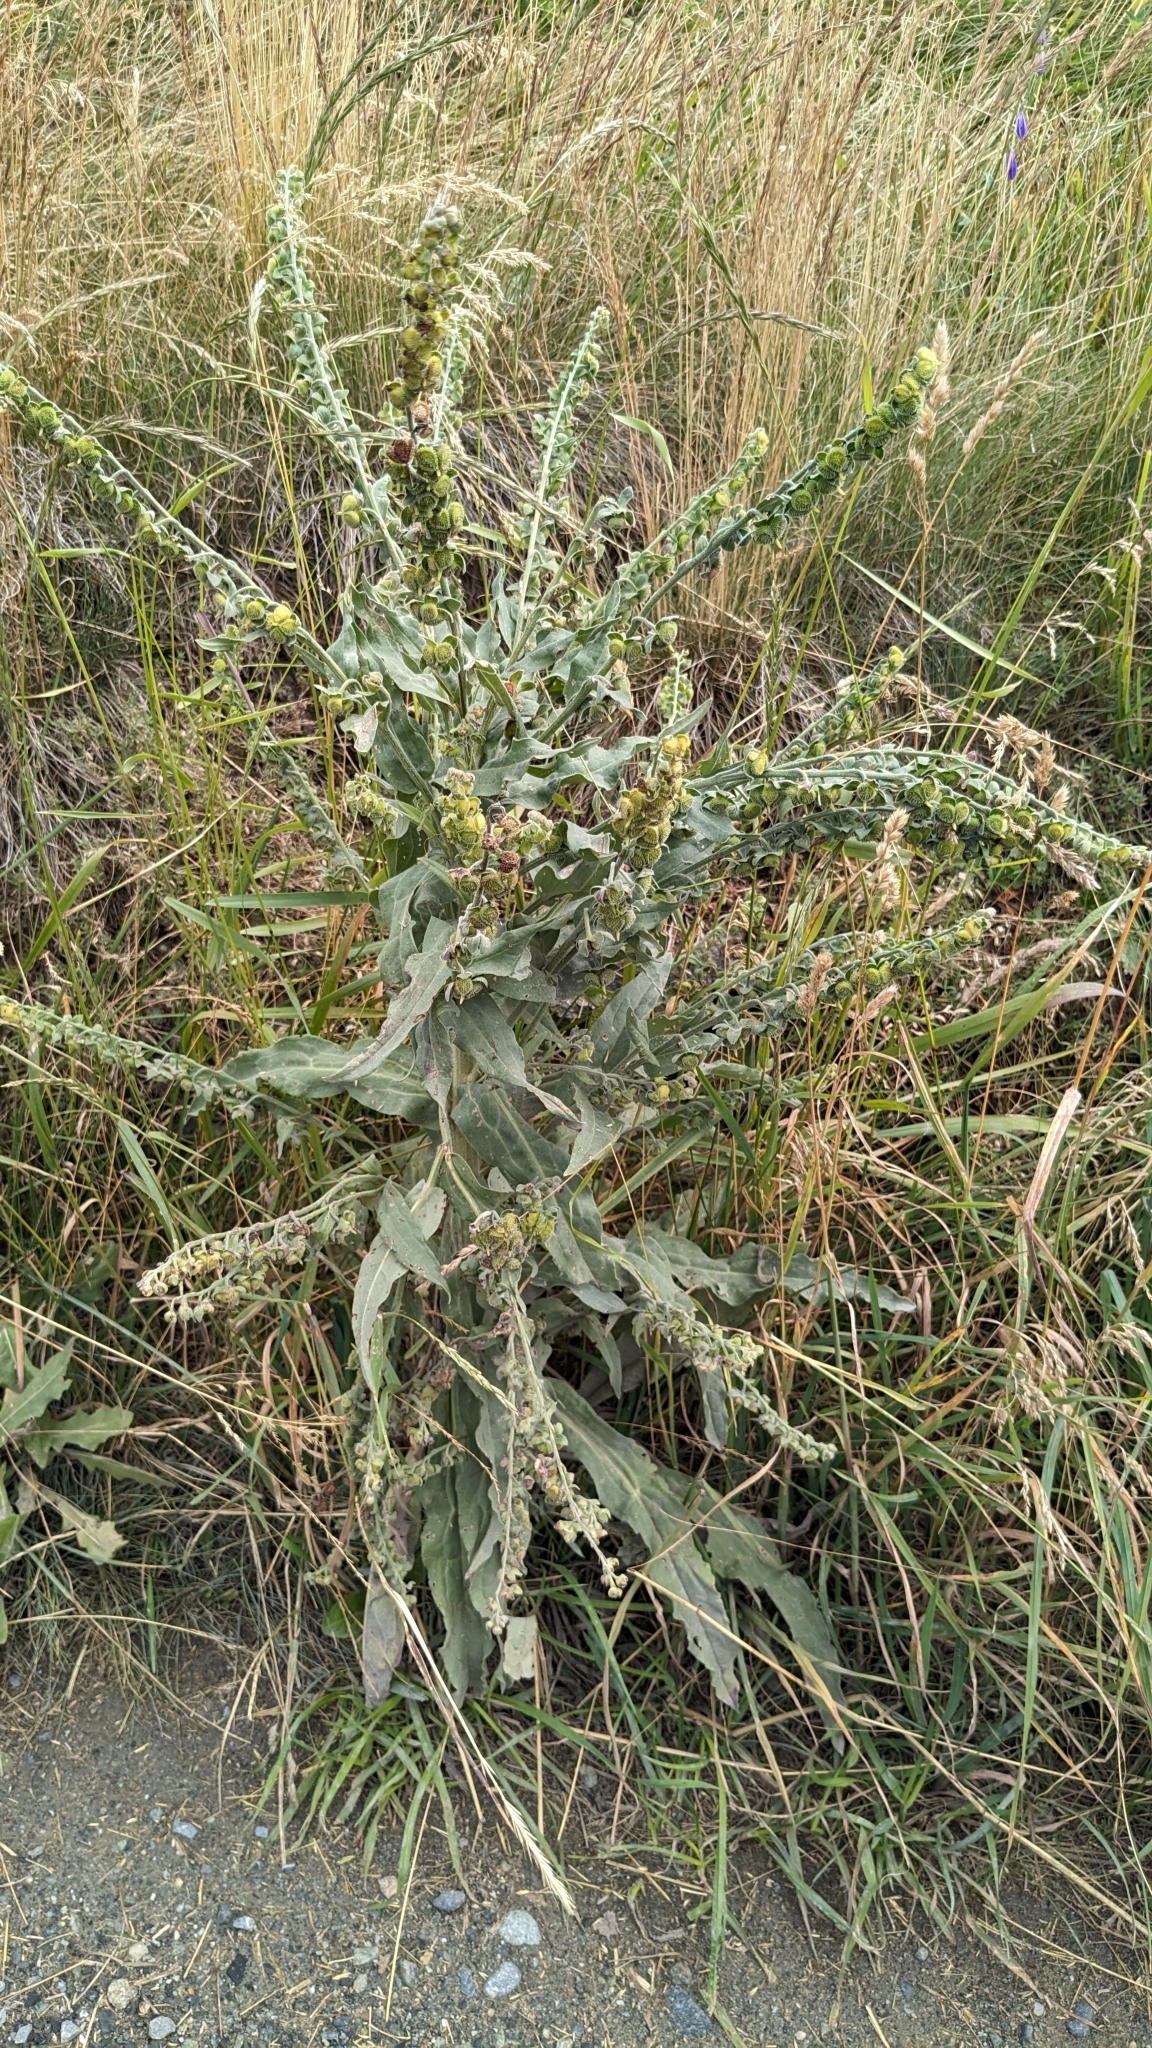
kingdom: Plantae
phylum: Tracheophyta
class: Magnoliopsida
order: Boraginales
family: Boraginaceae
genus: Cynoglossum
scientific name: Cynoglossum officinale
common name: Hound's-tongue
